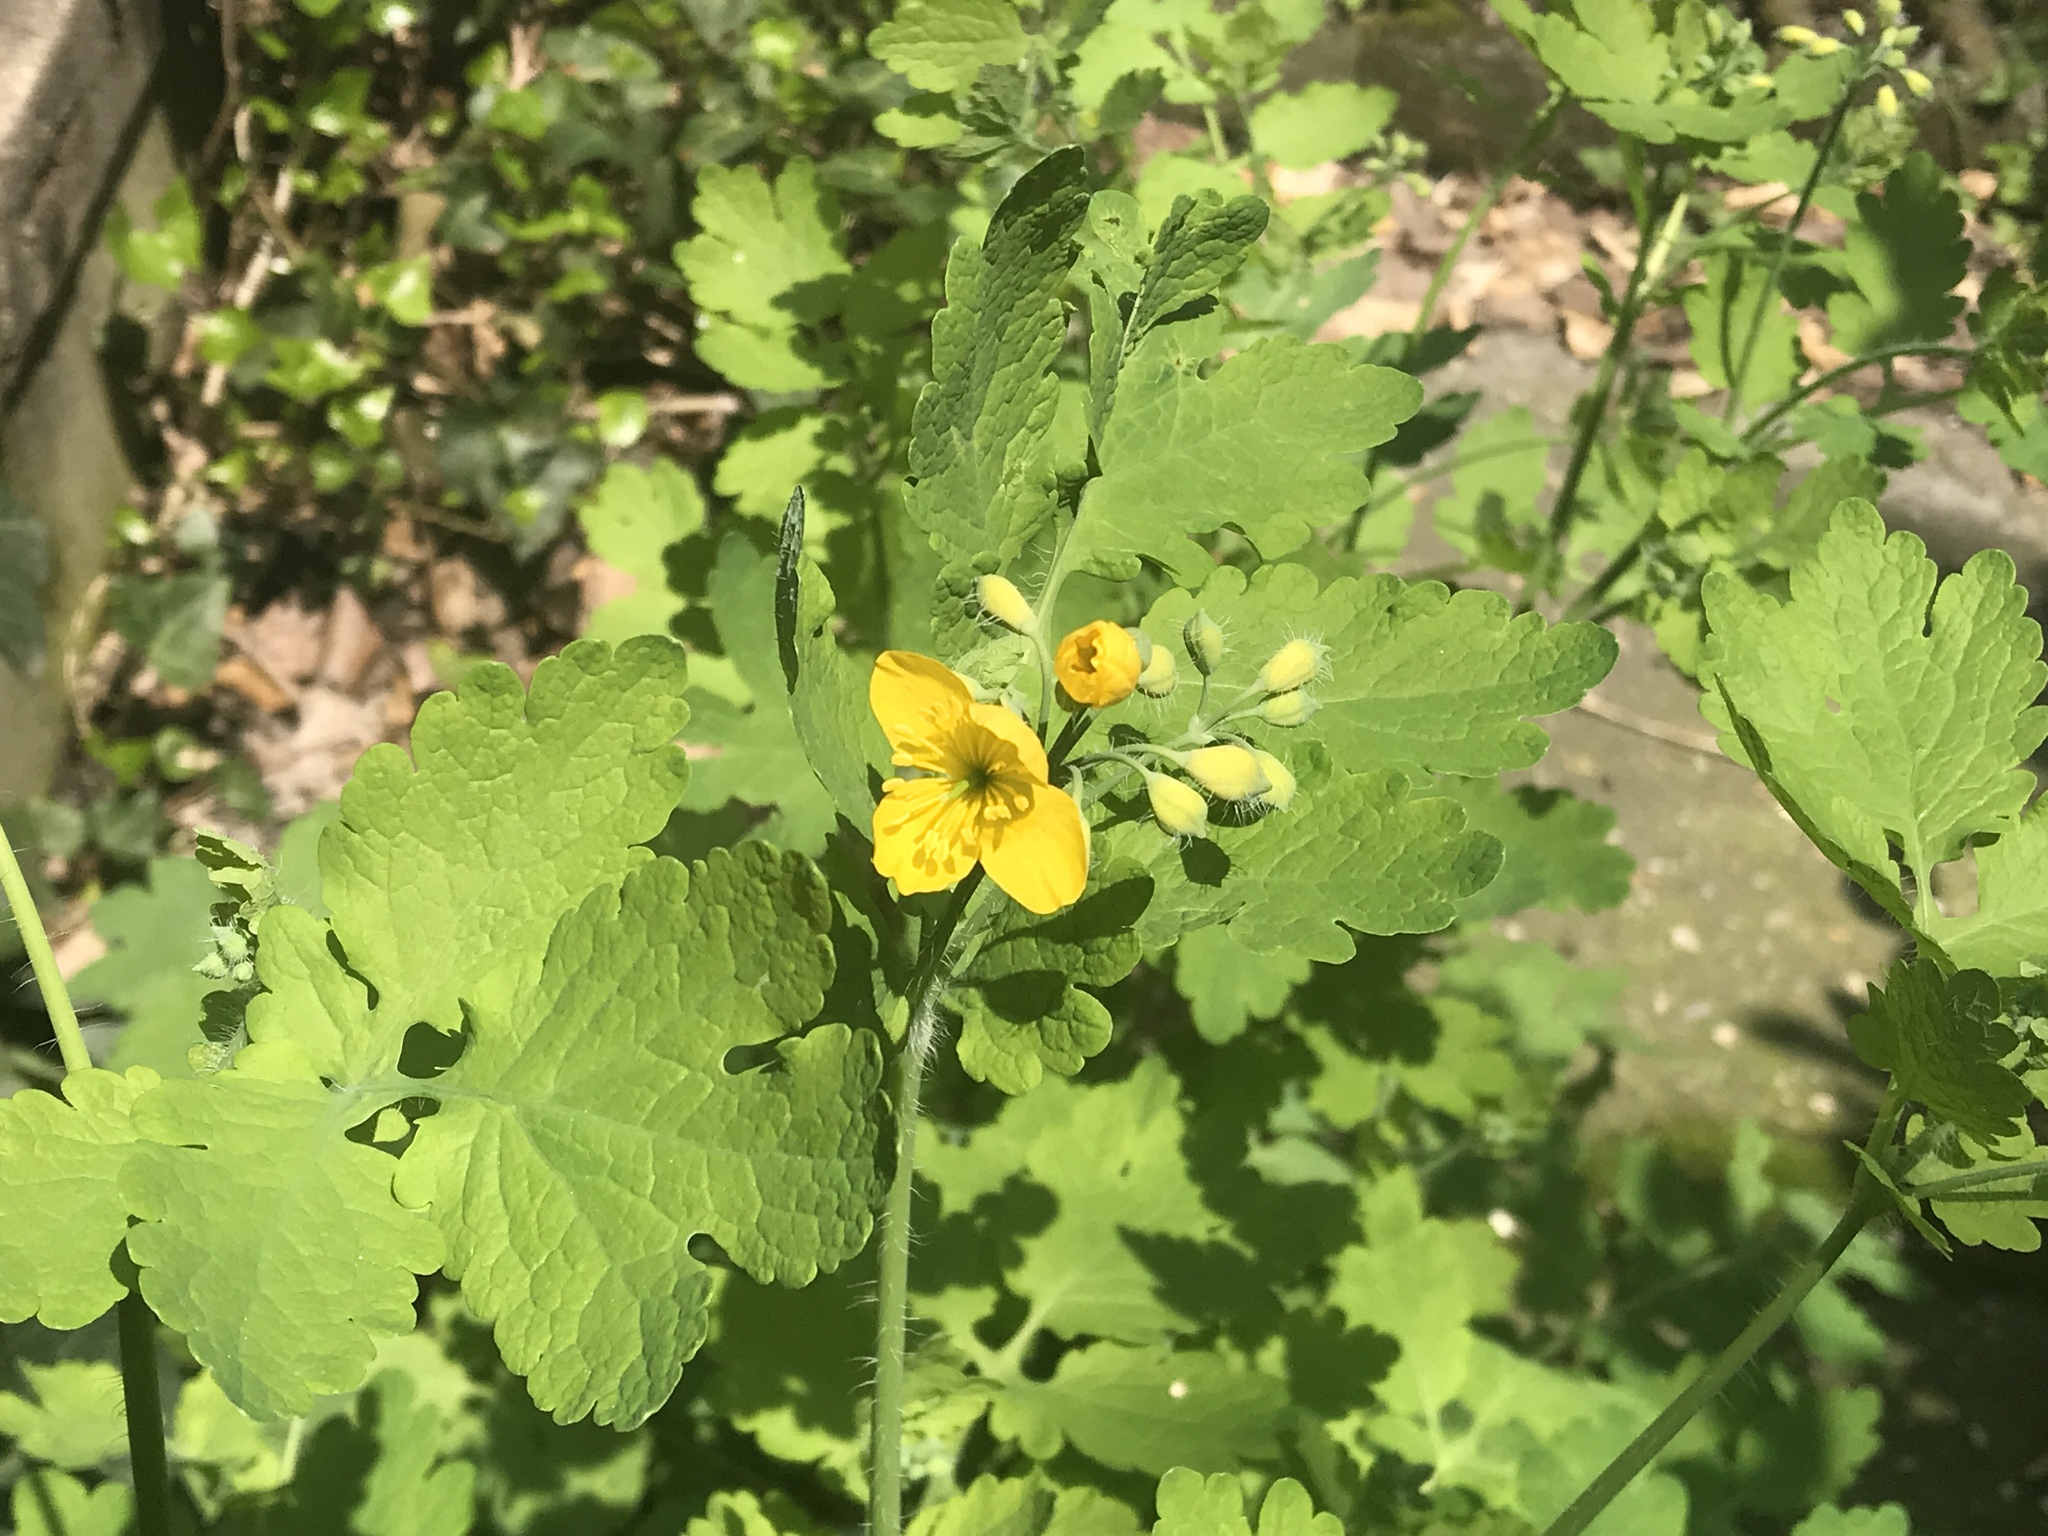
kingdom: Plantae
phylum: Tracheophyta
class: Magnoliopsida
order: Ranunculales
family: Papaveraceae
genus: Chelidonium
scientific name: Chelidonium majus
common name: Greater celandine
